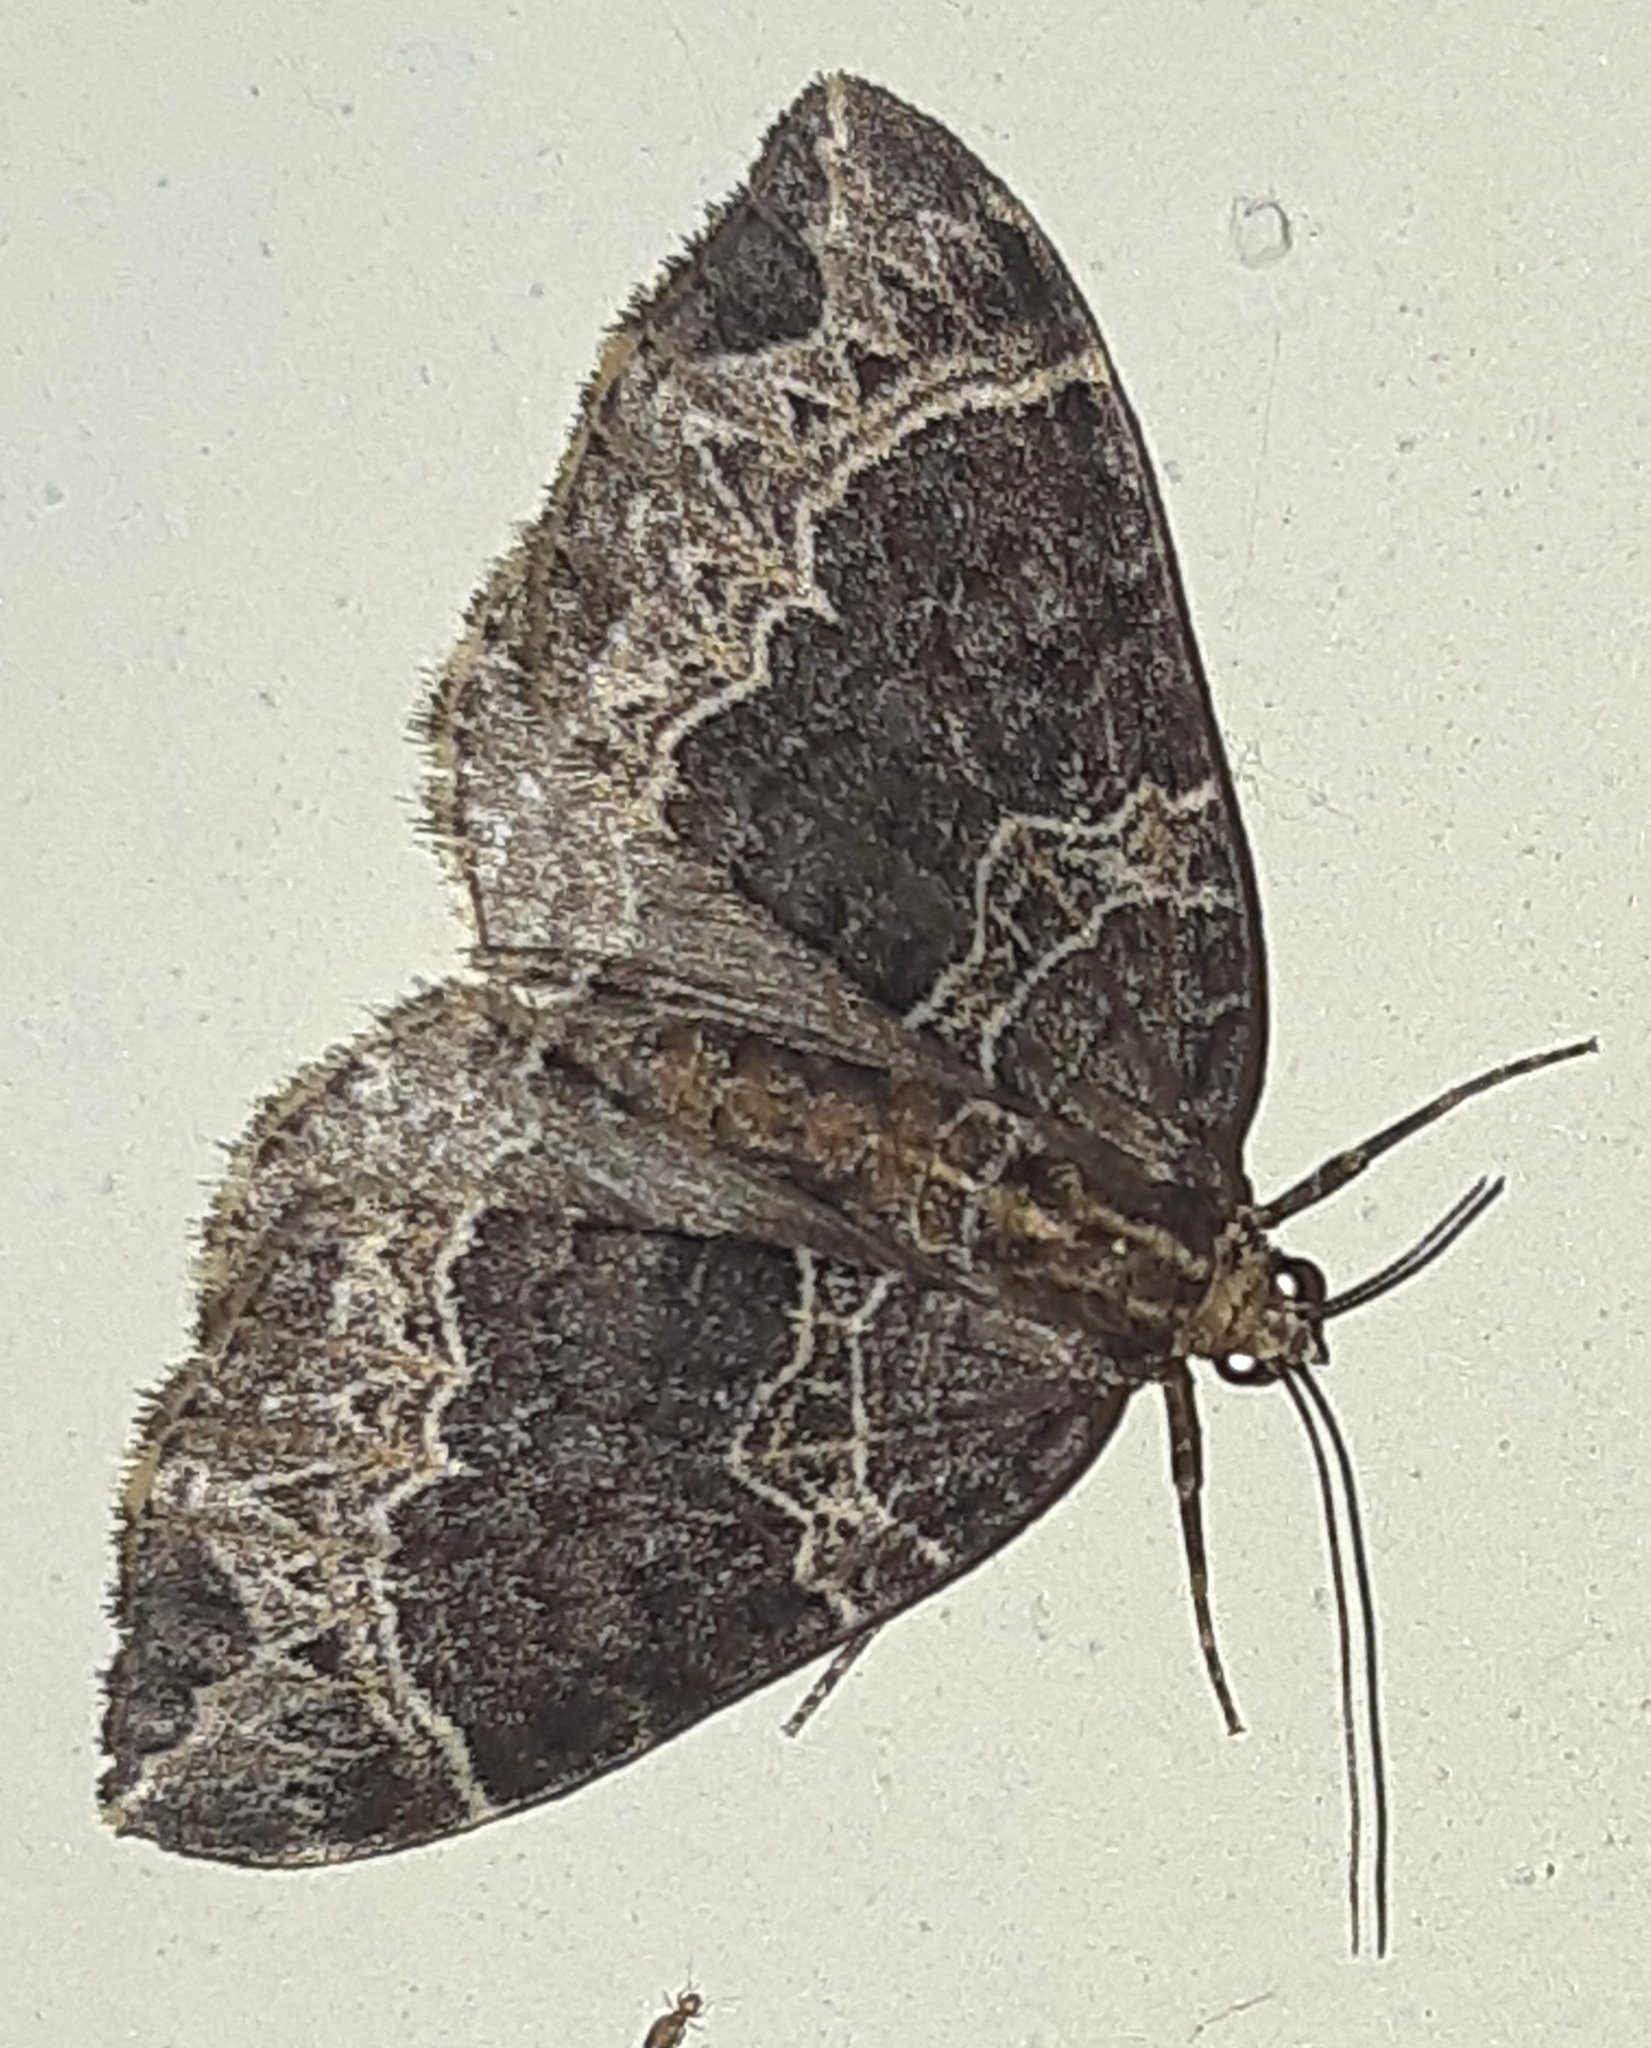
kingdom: Animalia
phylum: Arthropoda
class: Insecta
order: Lepidoptera
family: Geometridae
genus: Ecliptopera
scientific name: Ecliptopera silaceata
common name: Small phoenix
